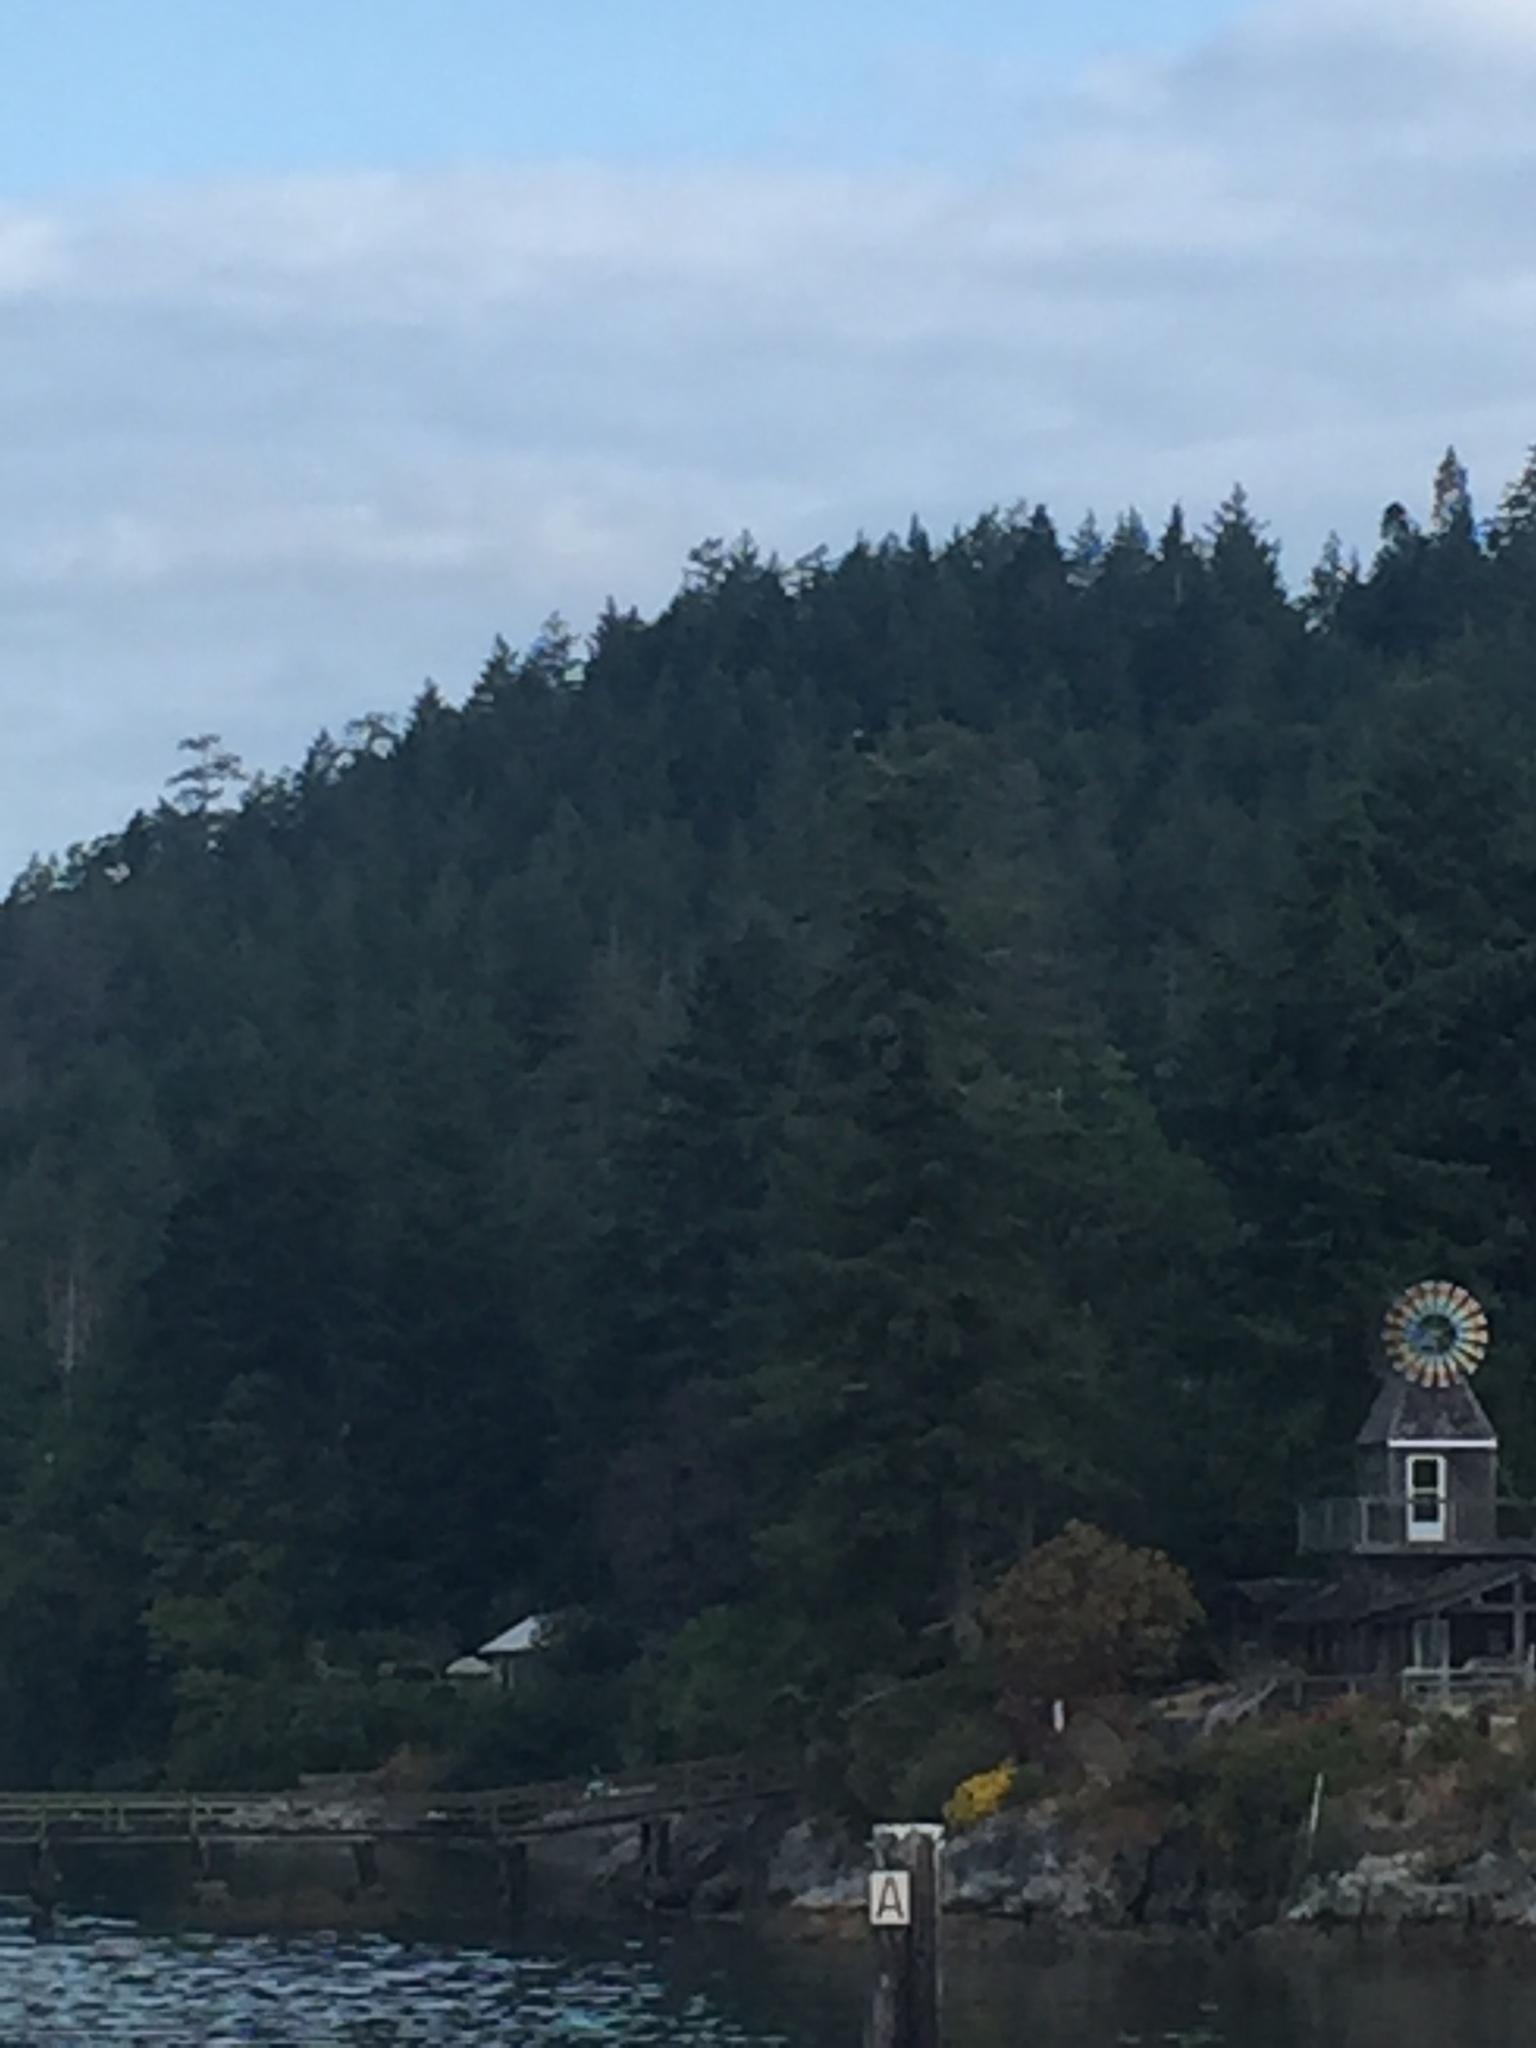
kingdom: Animalia
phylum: Chordata
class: Aves
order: Accipitriformes
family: Accipitridae
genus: Haliaeetus
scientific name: Haliaeetus leucocephalus
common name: Bald eagle
